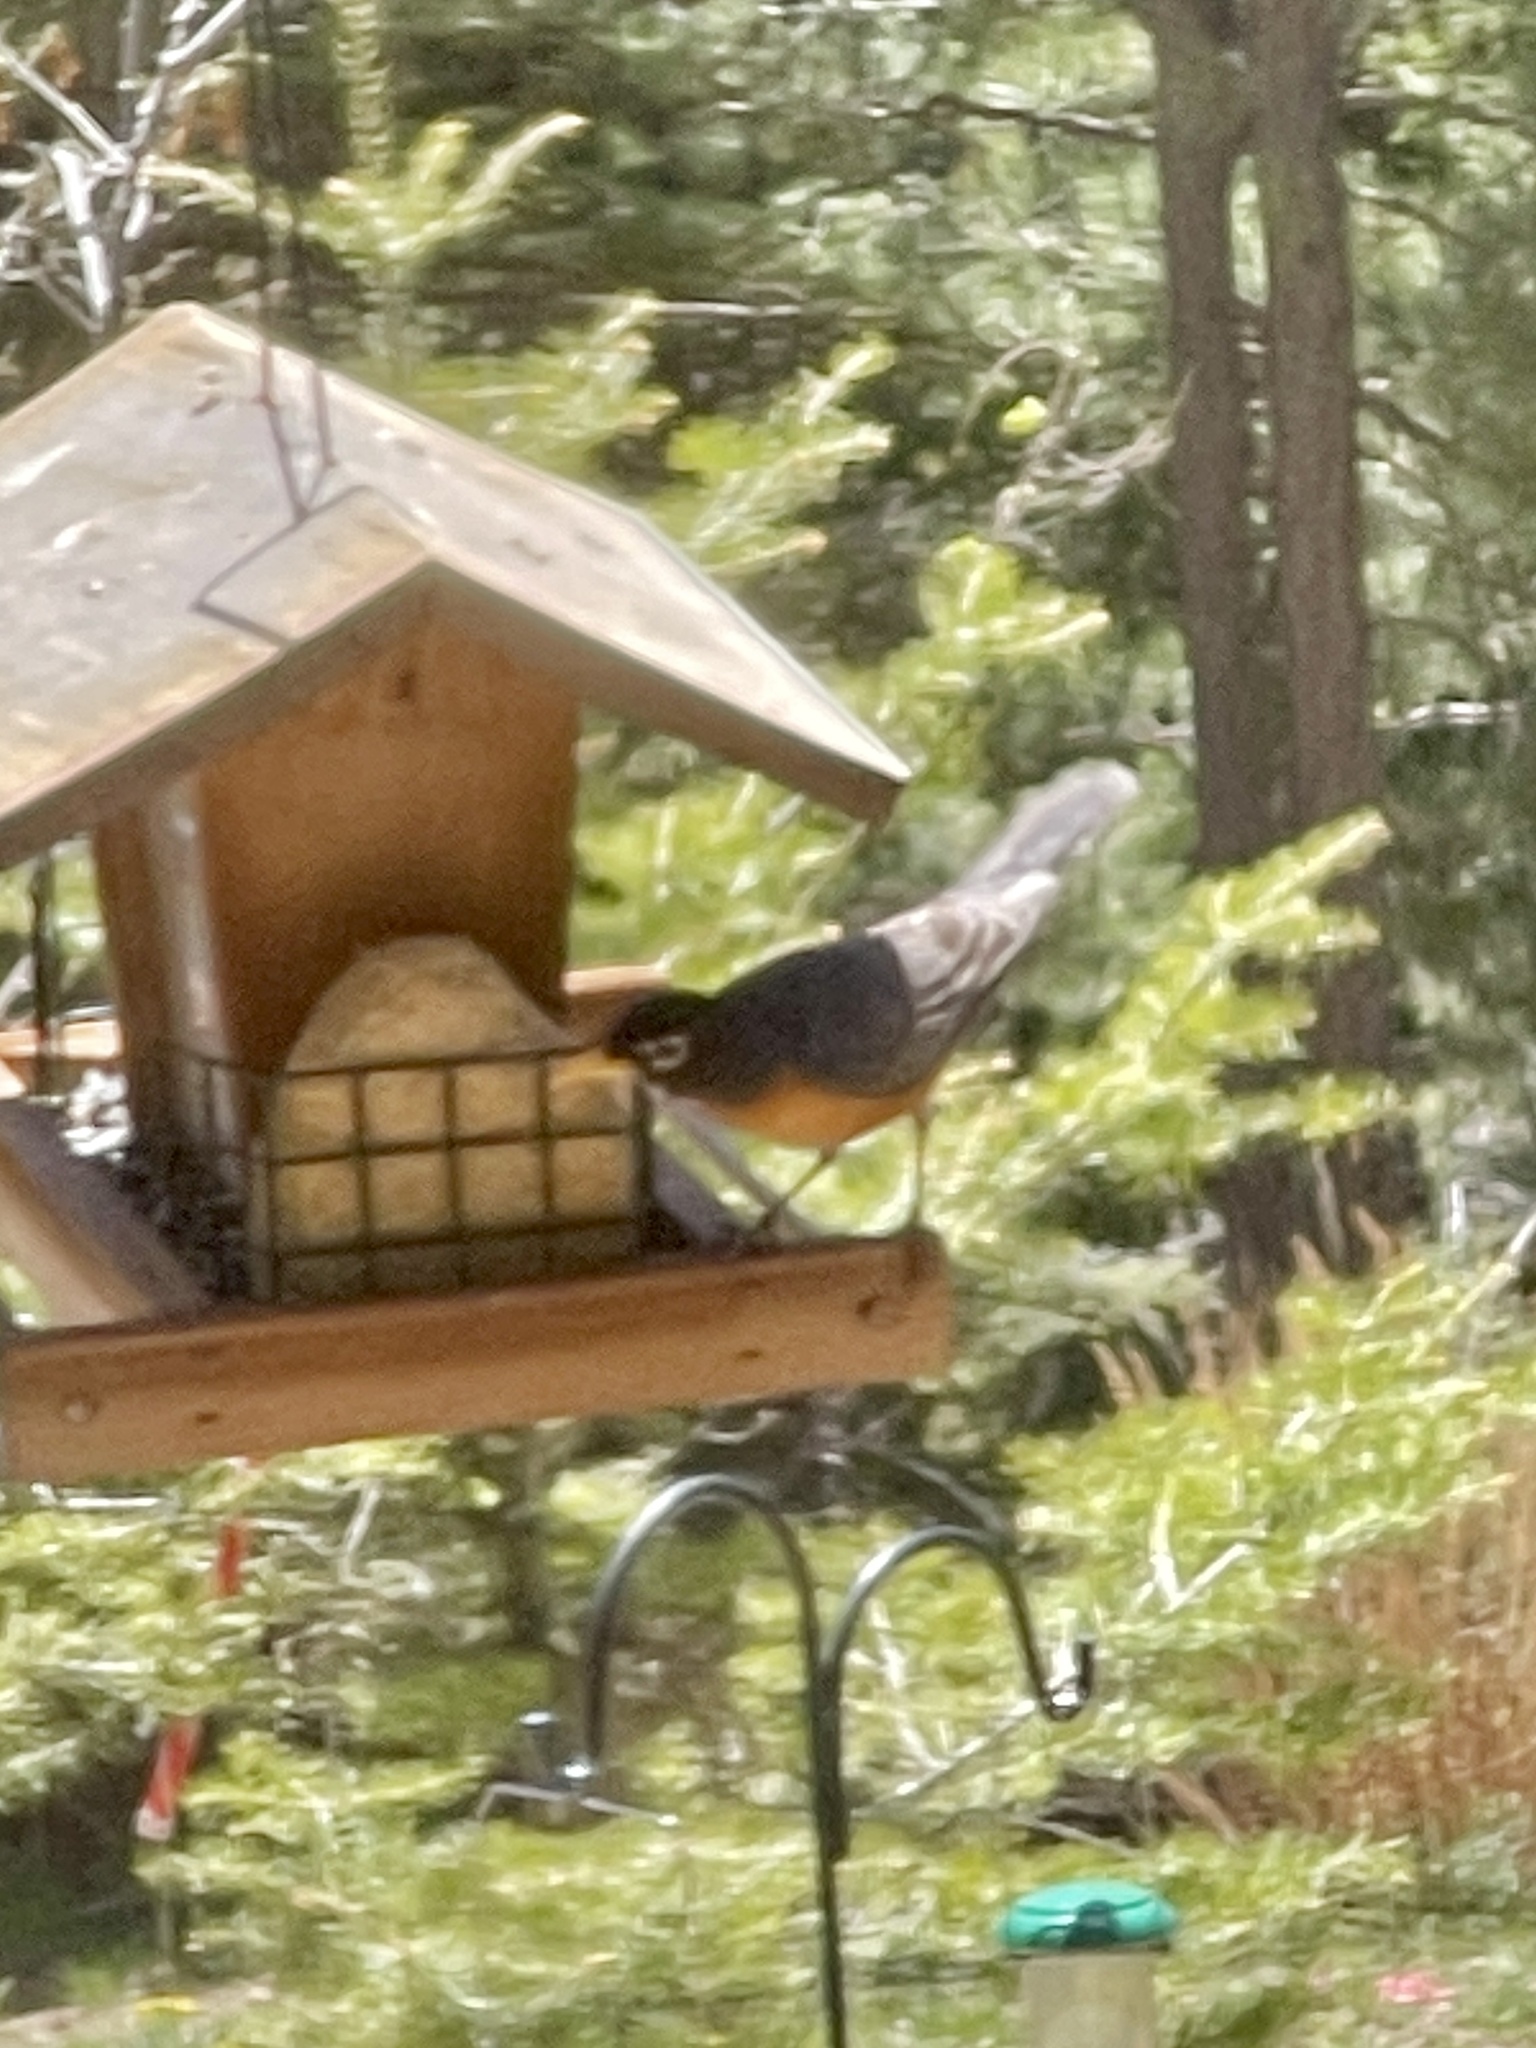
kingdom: Animalia
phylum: Chordata
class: Aves
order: Passeriformes
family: Turdidae
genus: Turdus
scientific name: Turdus migratorius
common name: American robin
